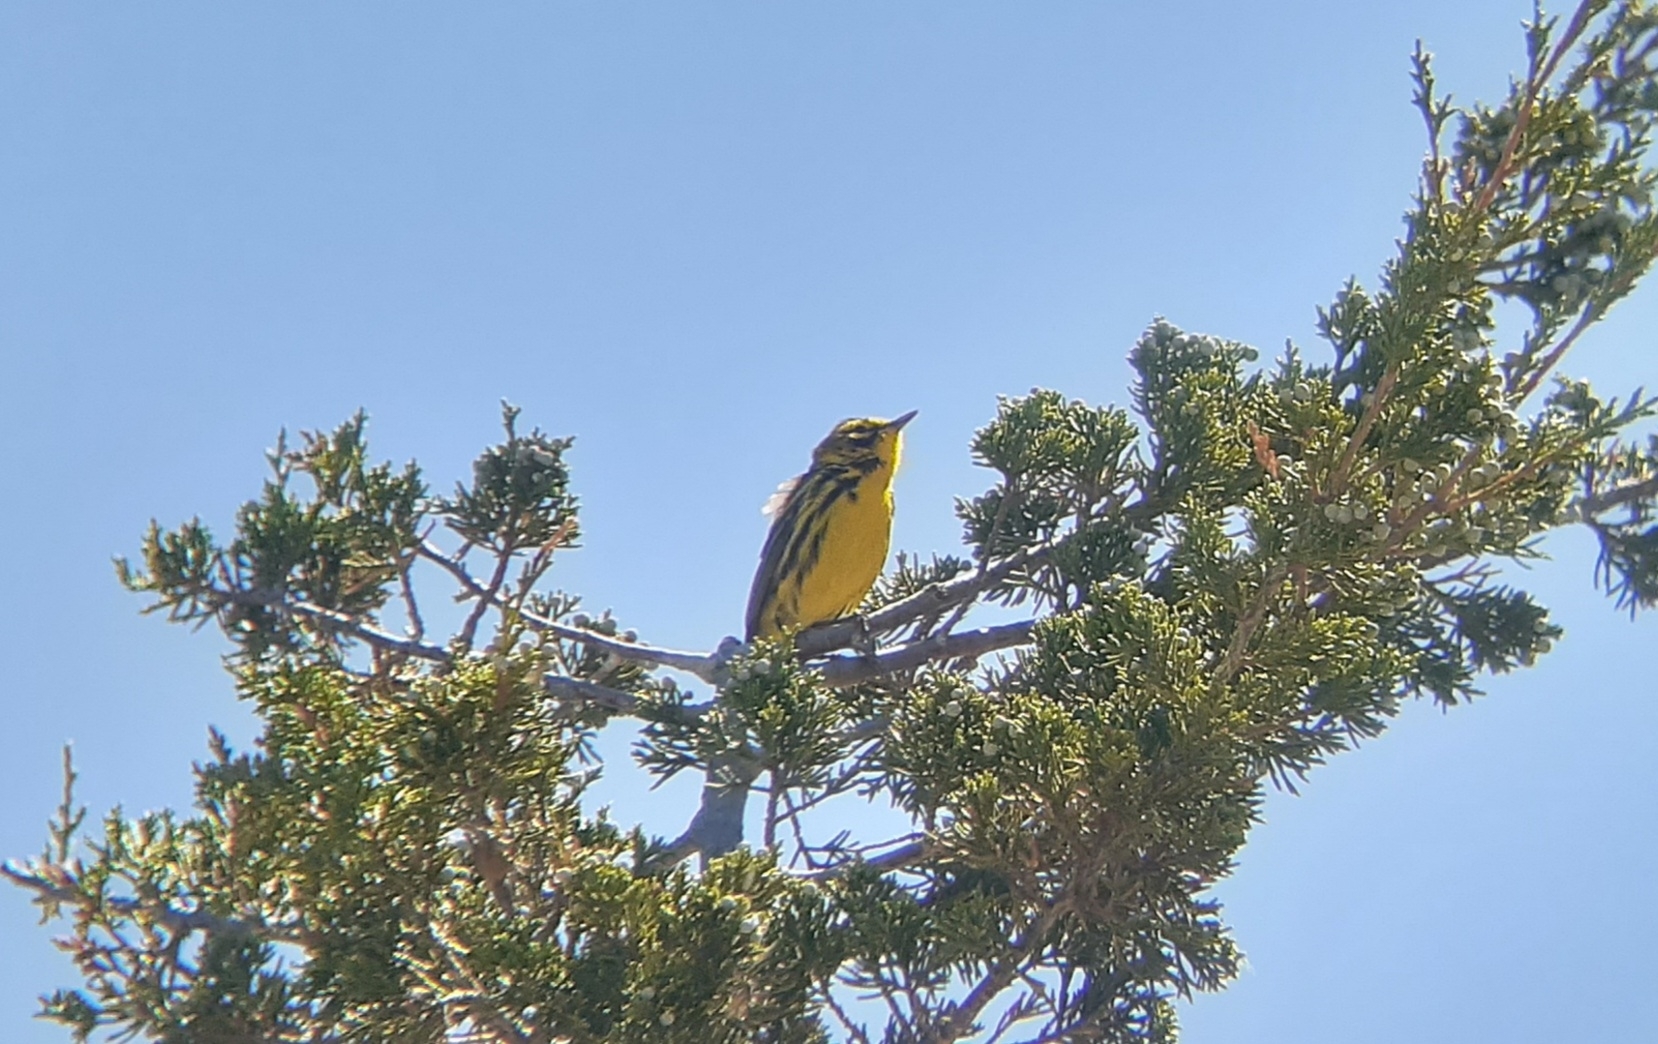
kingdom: Animalia
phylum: Chordata
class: Aves
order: Passeriformes
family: Parulidae
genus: Setophaga
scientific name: Setophaga discolor
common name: Prairie warbler
